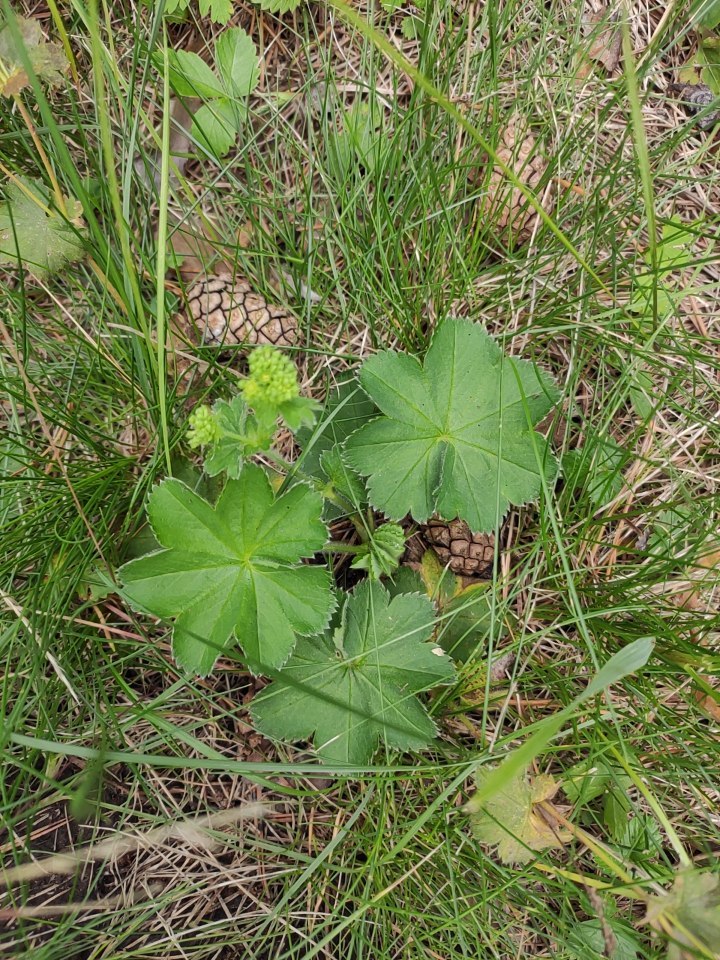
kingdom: Plantae
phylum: Tracheophyta
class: Magnoliopsida
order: Rosales
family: Rosaceae
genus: Alchemilla
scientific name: Alchemilla
